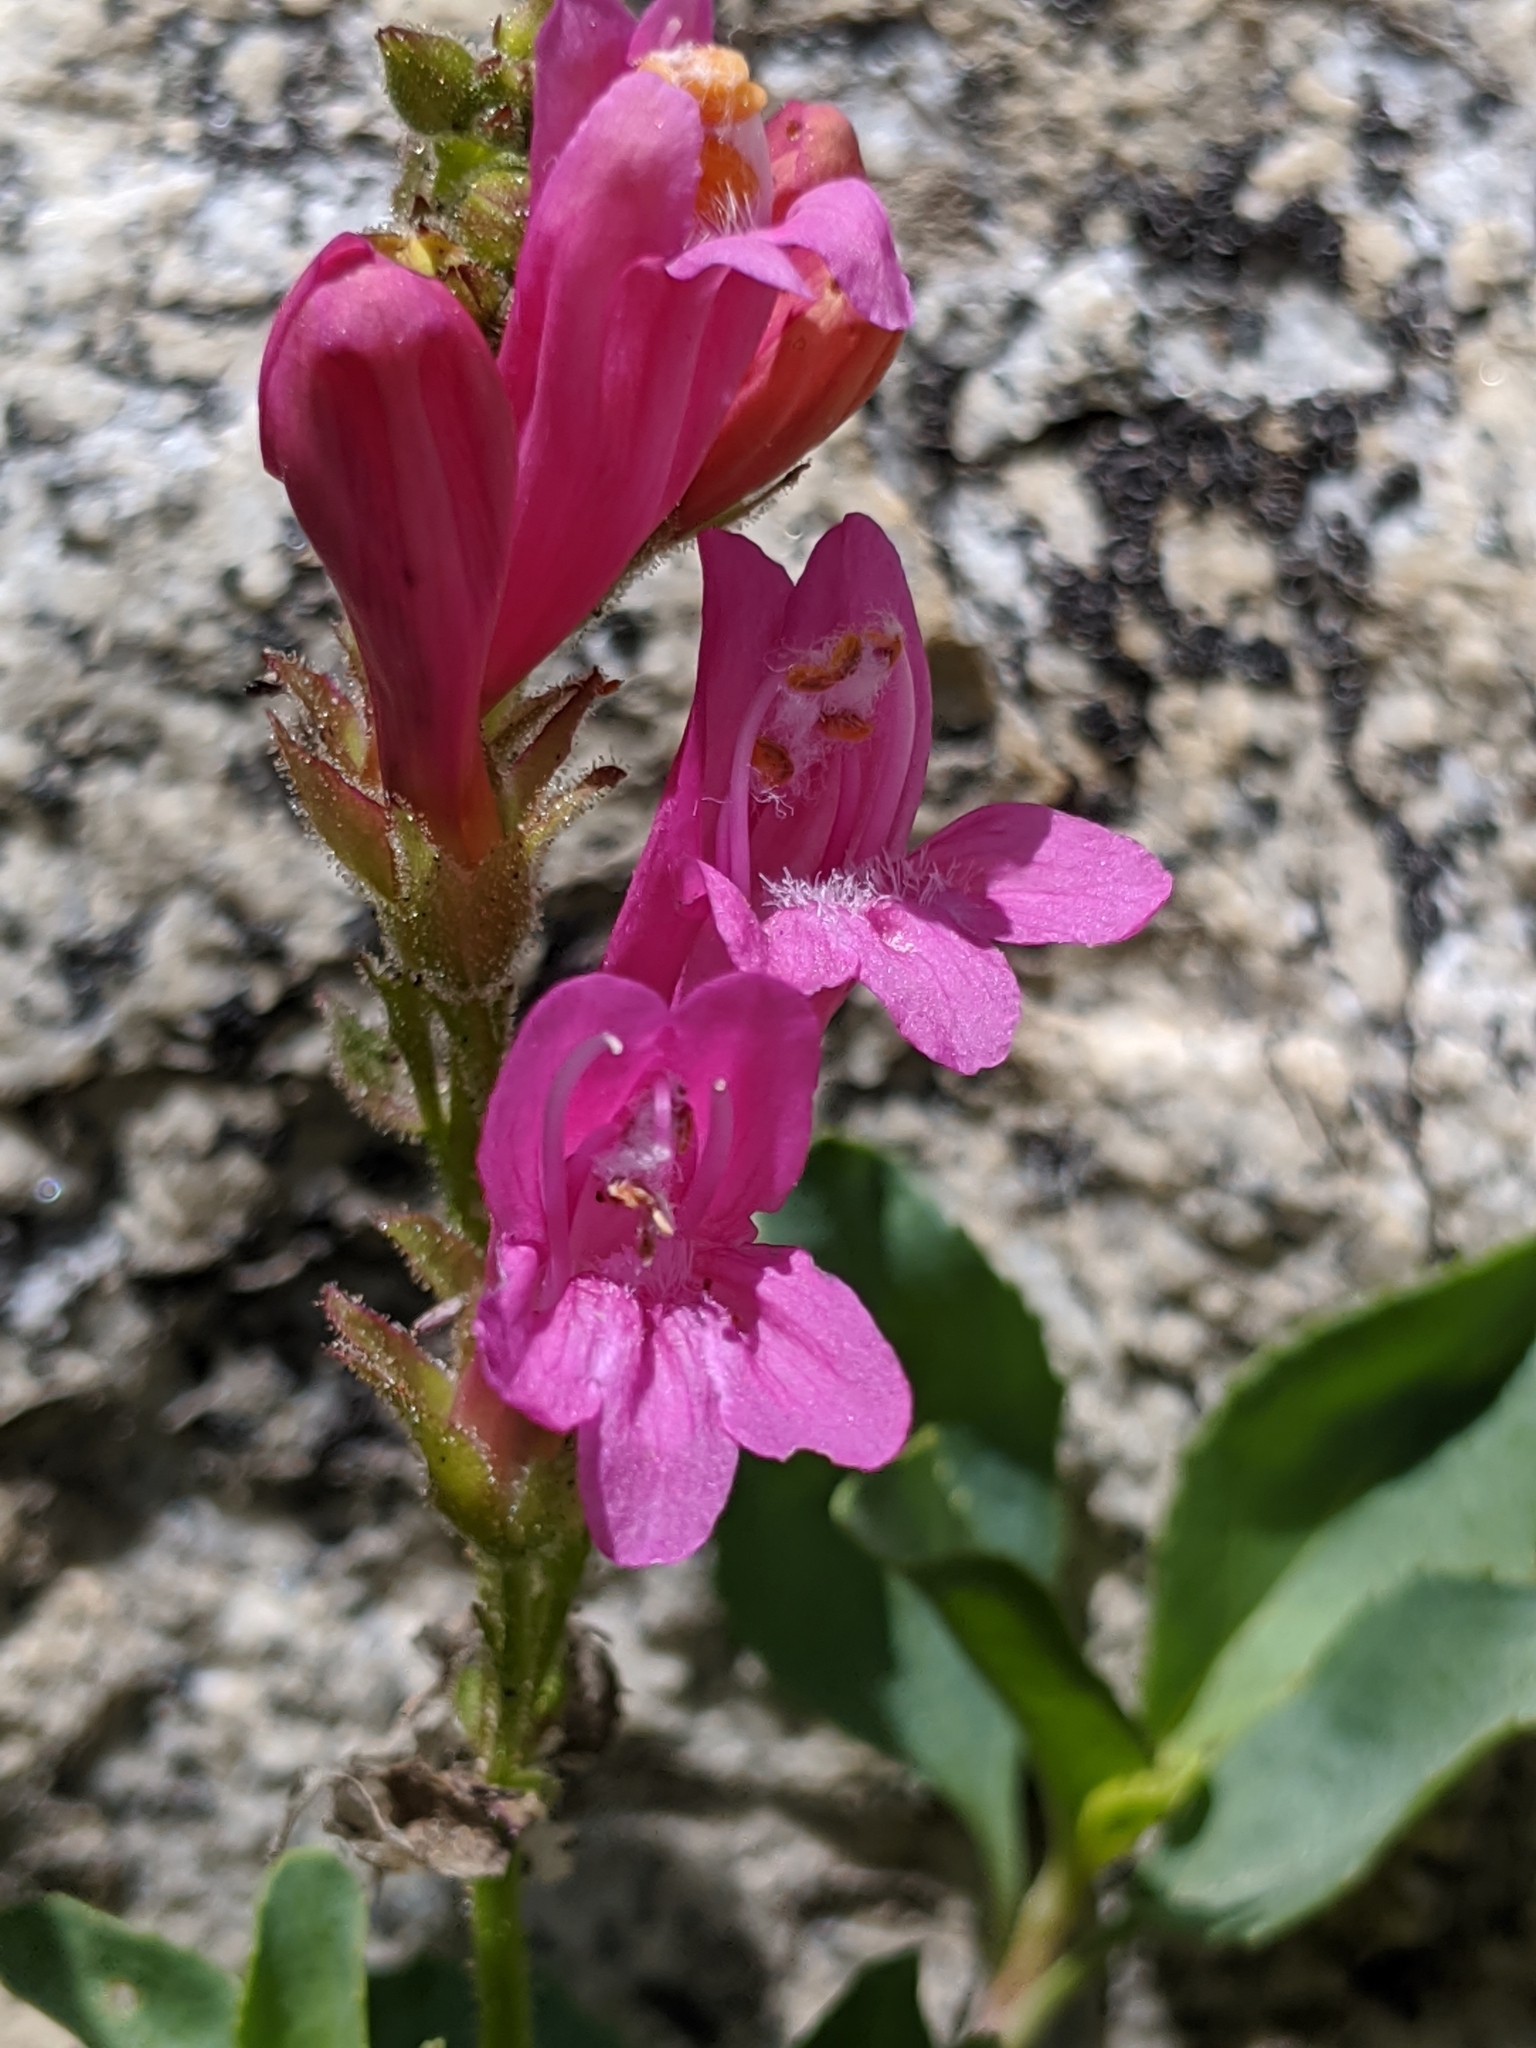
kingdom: Plantae
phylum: Tracheophyta
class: Magnoliopsida
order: Lamiales
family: Plantaginaceae
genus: Penstemon
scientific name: Penstemon newberryi
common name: Mountain-pride
